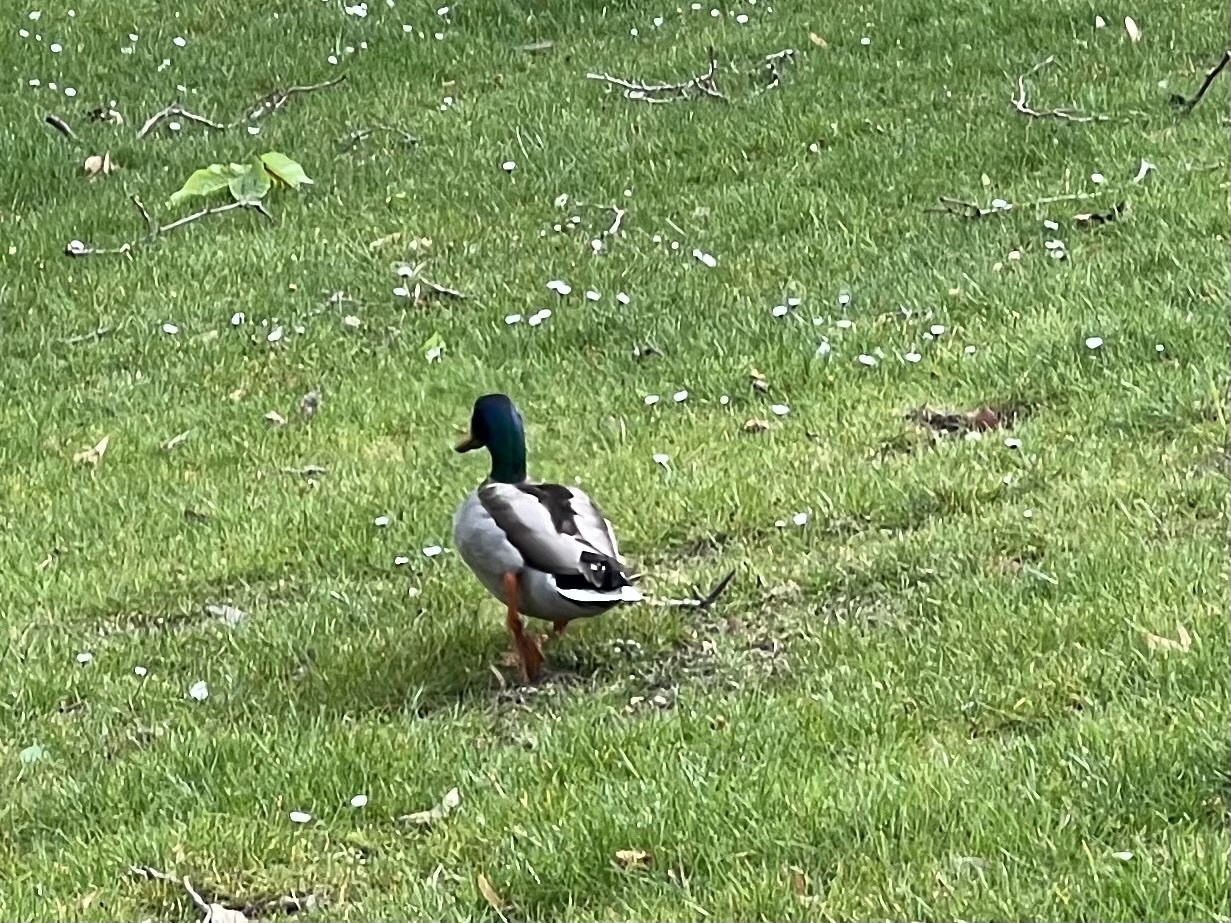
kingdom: Animalia
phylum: Chordata
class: Aves
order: Anseriformes
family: Anatidae
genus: Anas
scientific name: Anas platyrhynchos
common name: Mallard
